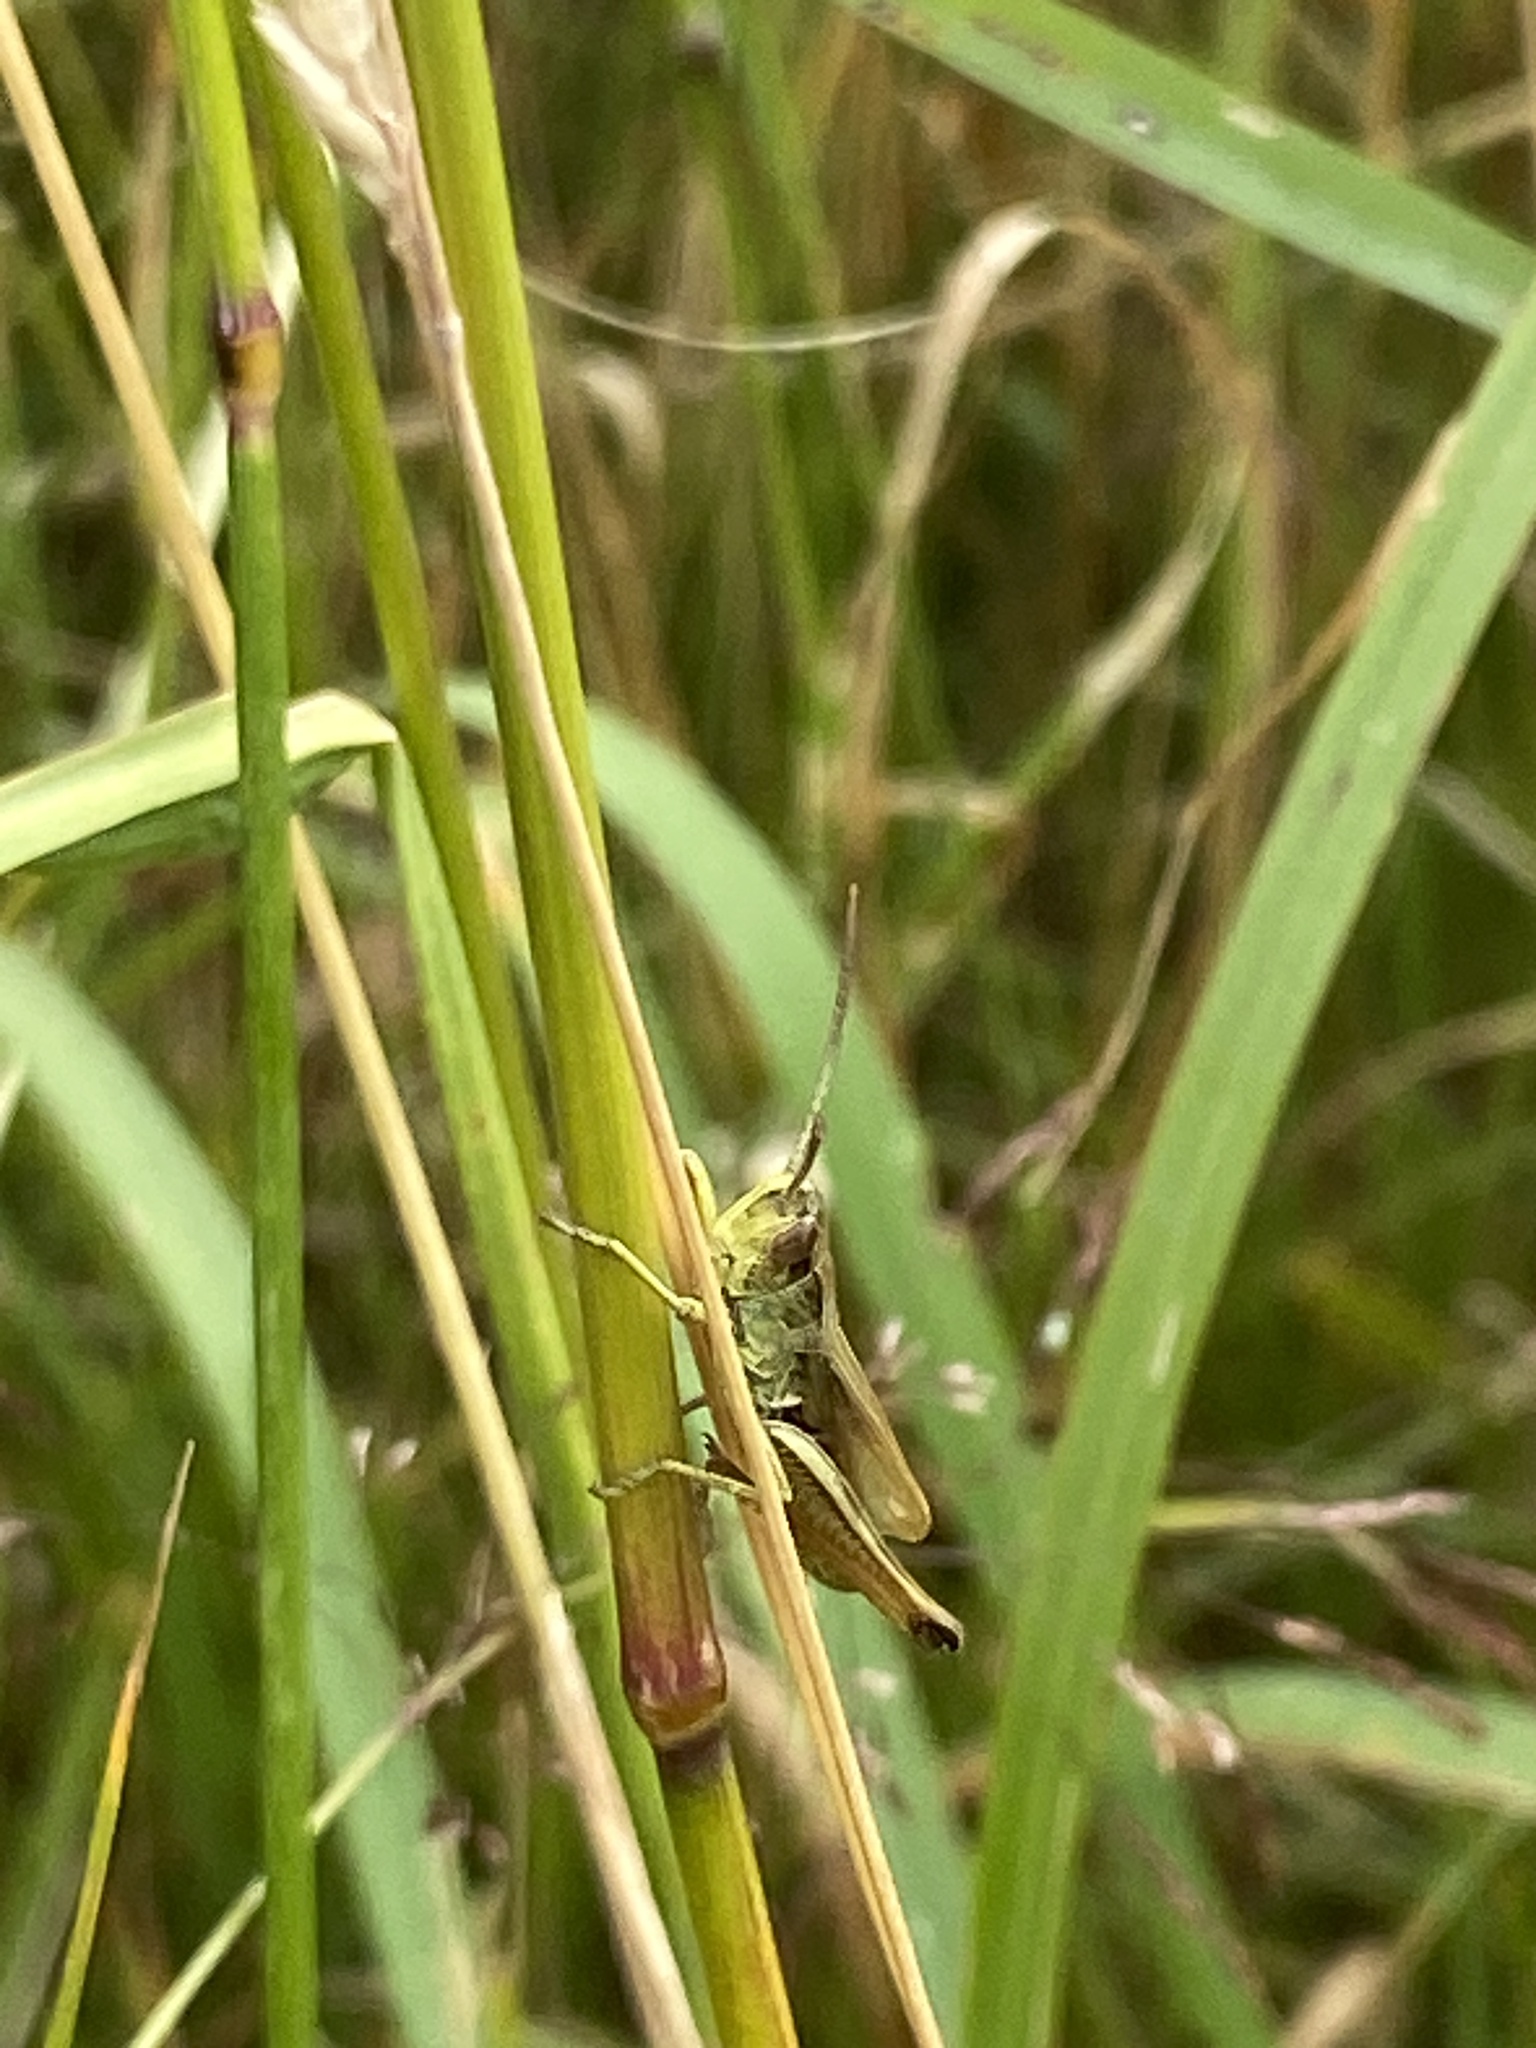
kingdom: Animalia
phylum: Arthropoda
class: Insecta
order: Orthoptera
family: Acrididae
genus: Pseudochorthippus
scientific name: Pseudochorthippus parallelus
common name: Meadow grasshopper
